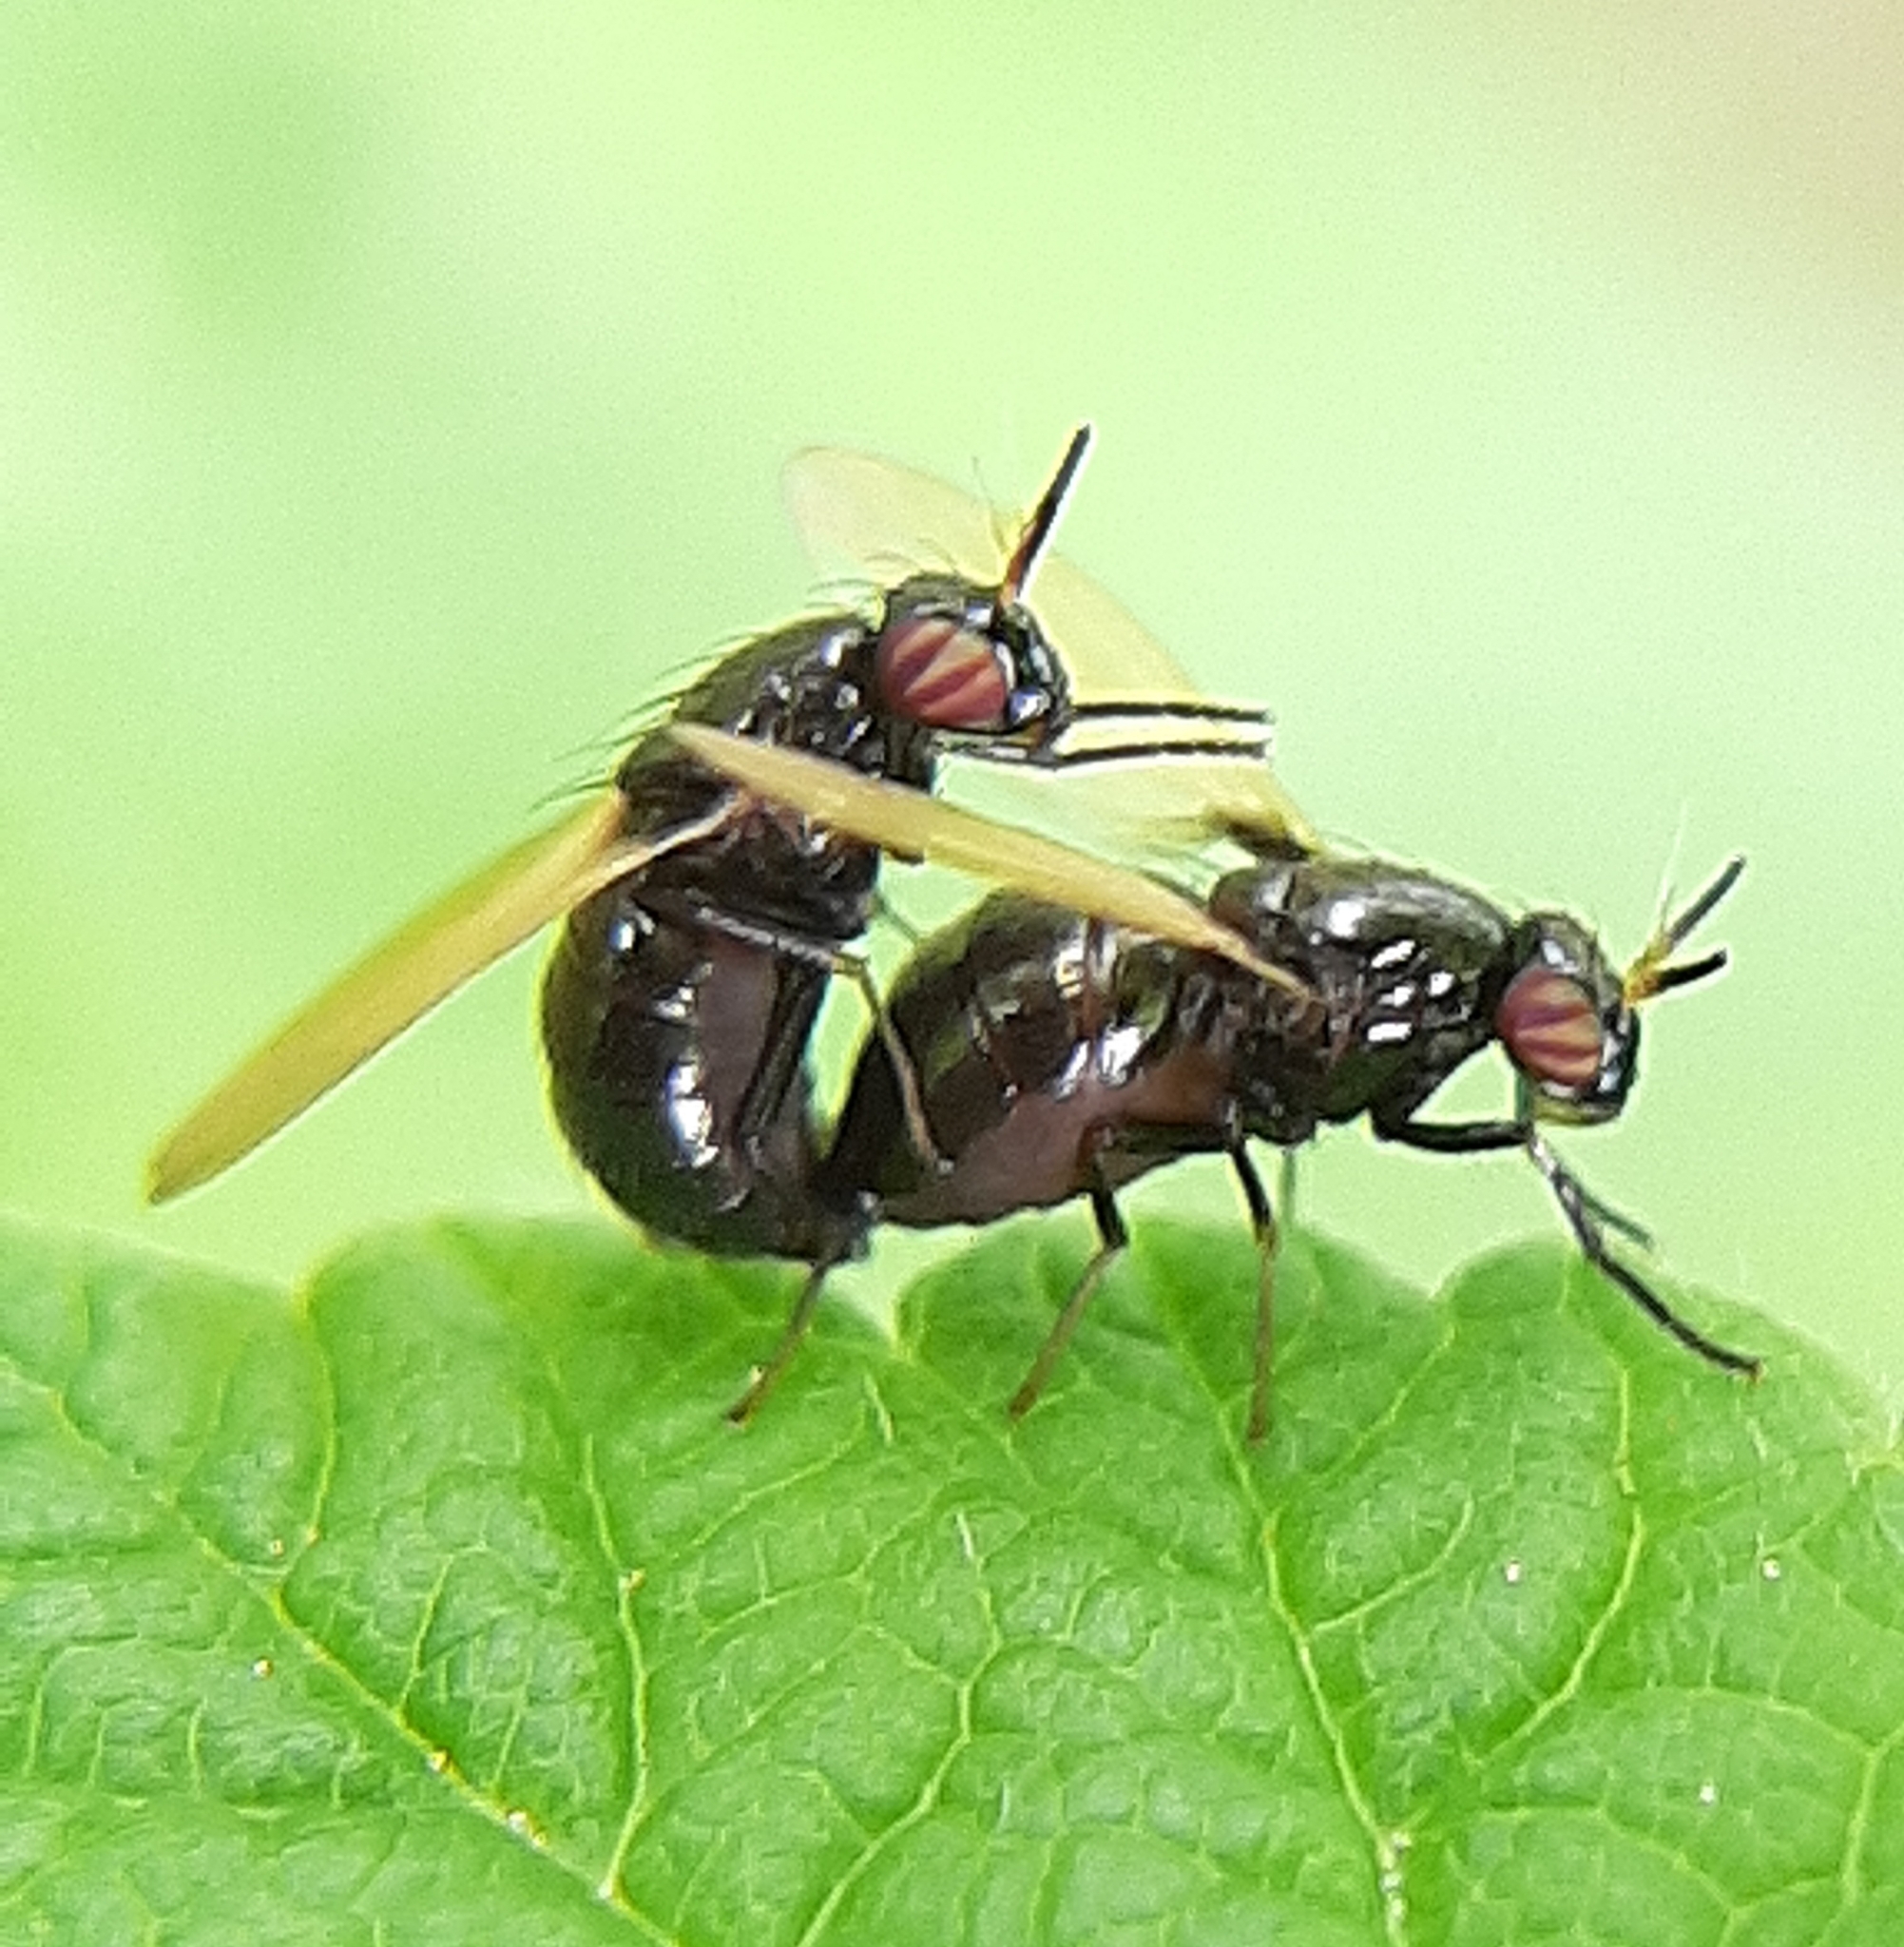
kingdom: Animalia
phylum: Arthropoda
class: Insecta
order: Diptera
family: Lauxaniidae
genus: Lauxania
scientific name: Lauxania shewelli
